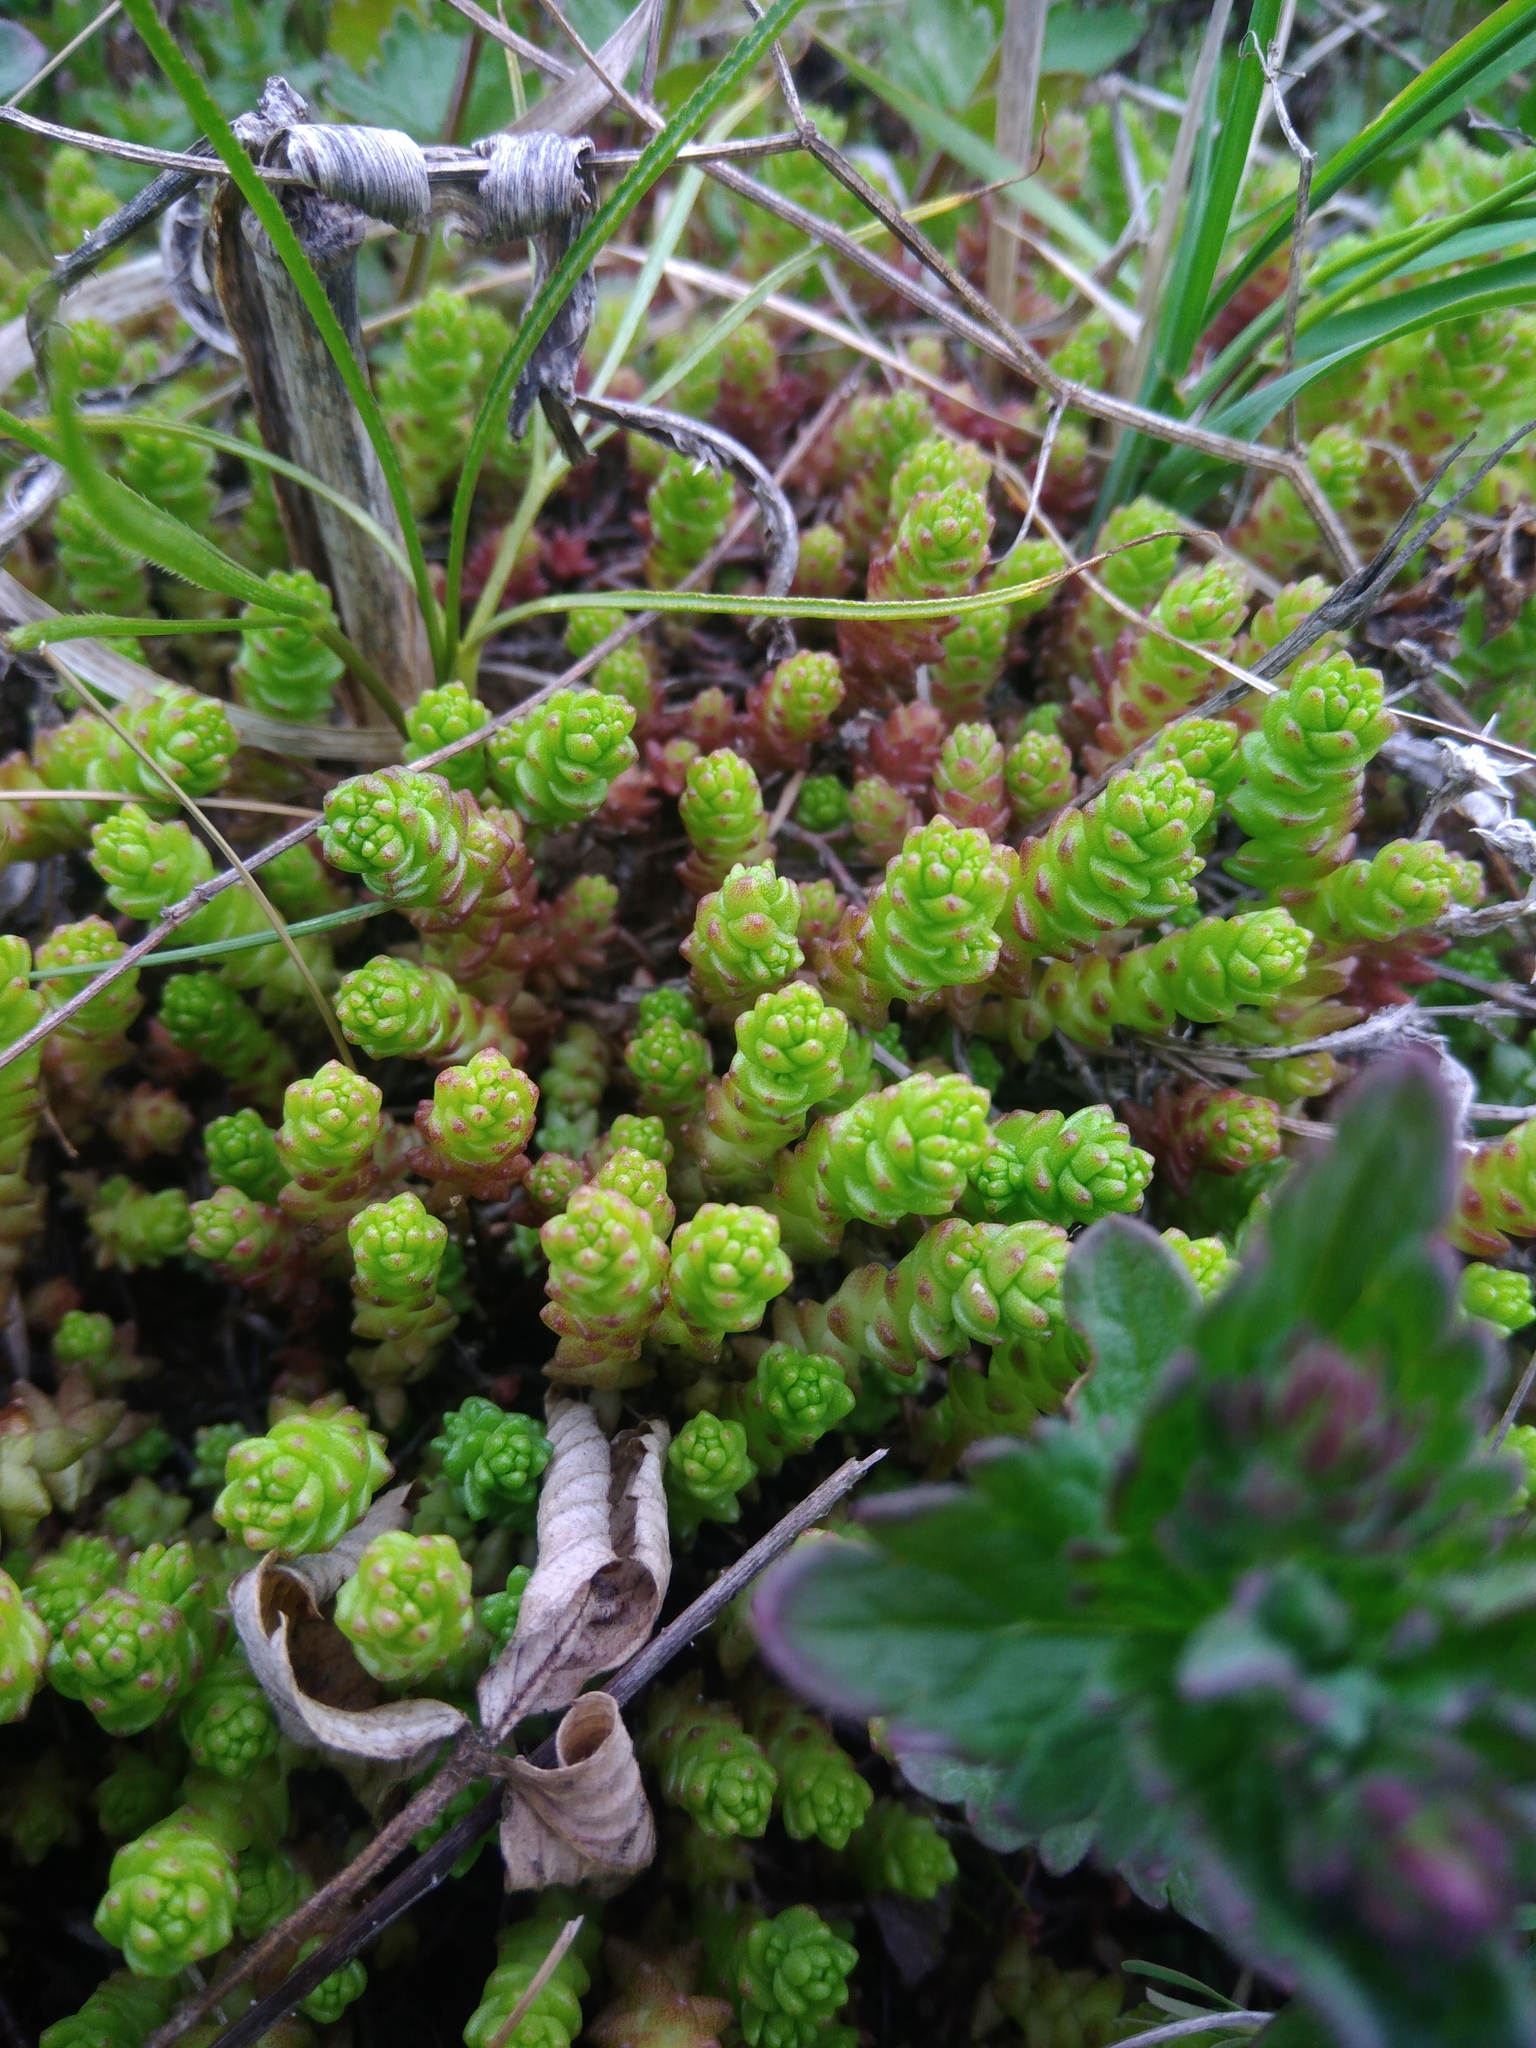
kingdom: Plantae
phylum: Tracheophyta
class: Magnoliopsida
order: Saxifragales
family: Crassulaceae
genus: Sedum
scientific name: Sedum acre
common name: Biting stonecrop
